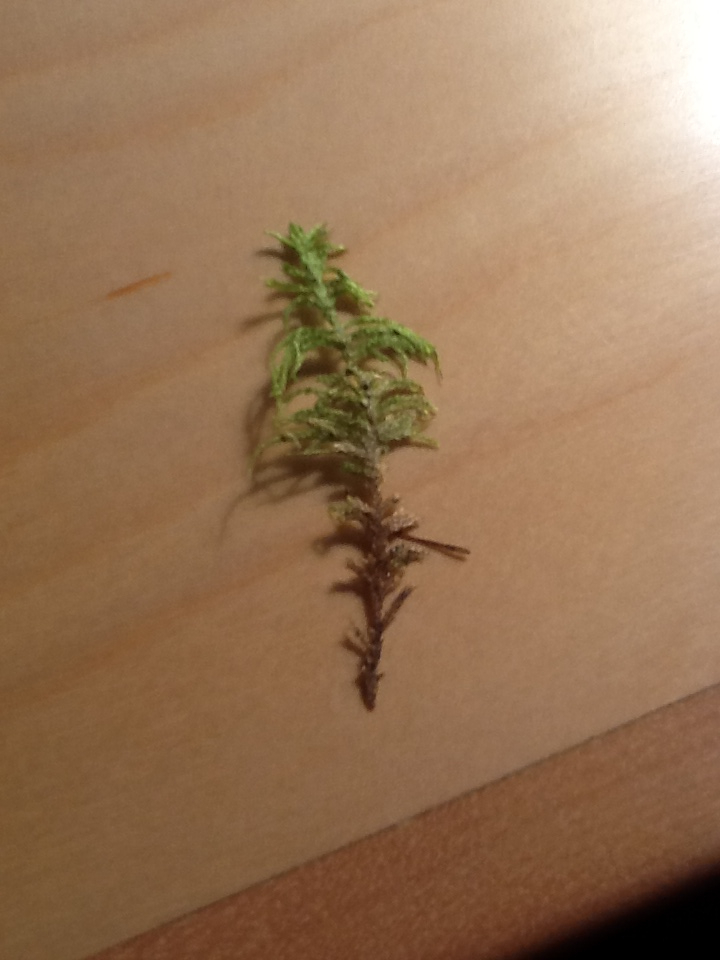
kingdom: Plantae
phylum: Bryophyta
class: Bryopsida
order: Hypnales
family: Hylocomiaceae
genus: Pleurozium
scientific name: Pleurozium schreberi
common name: Red-stemmed feather moss
